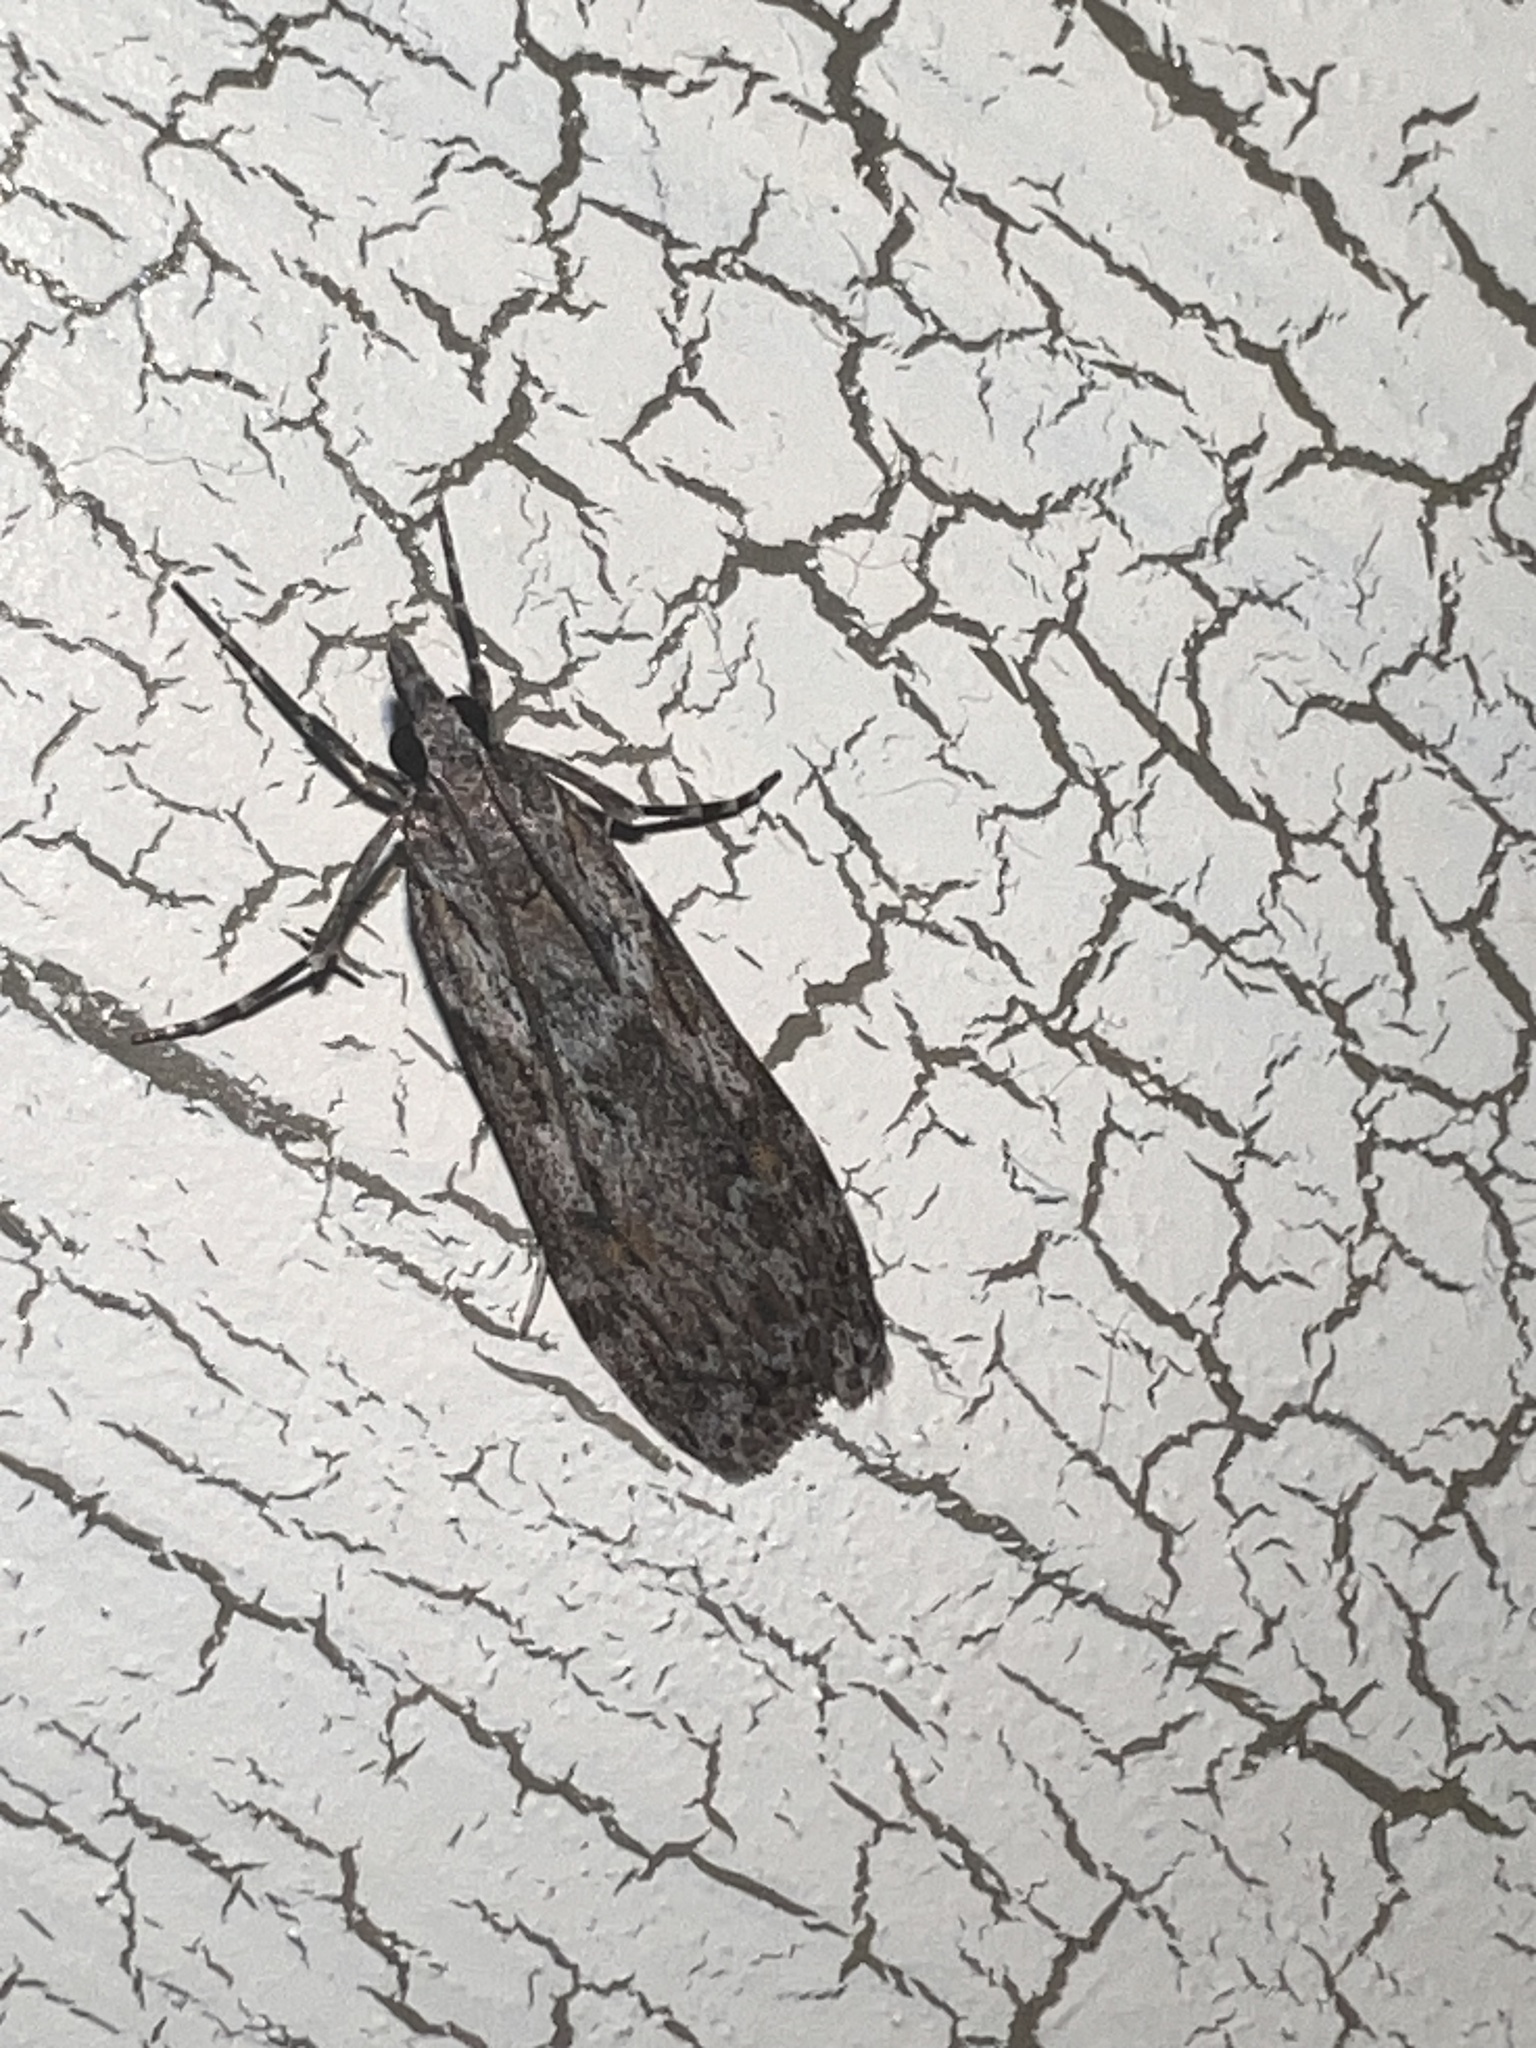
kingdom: Animalia
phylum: Arthropoda
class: Insecta
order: Lepidoptera
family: Crambidae
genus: Scoparia
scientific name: Scoparia halopis
